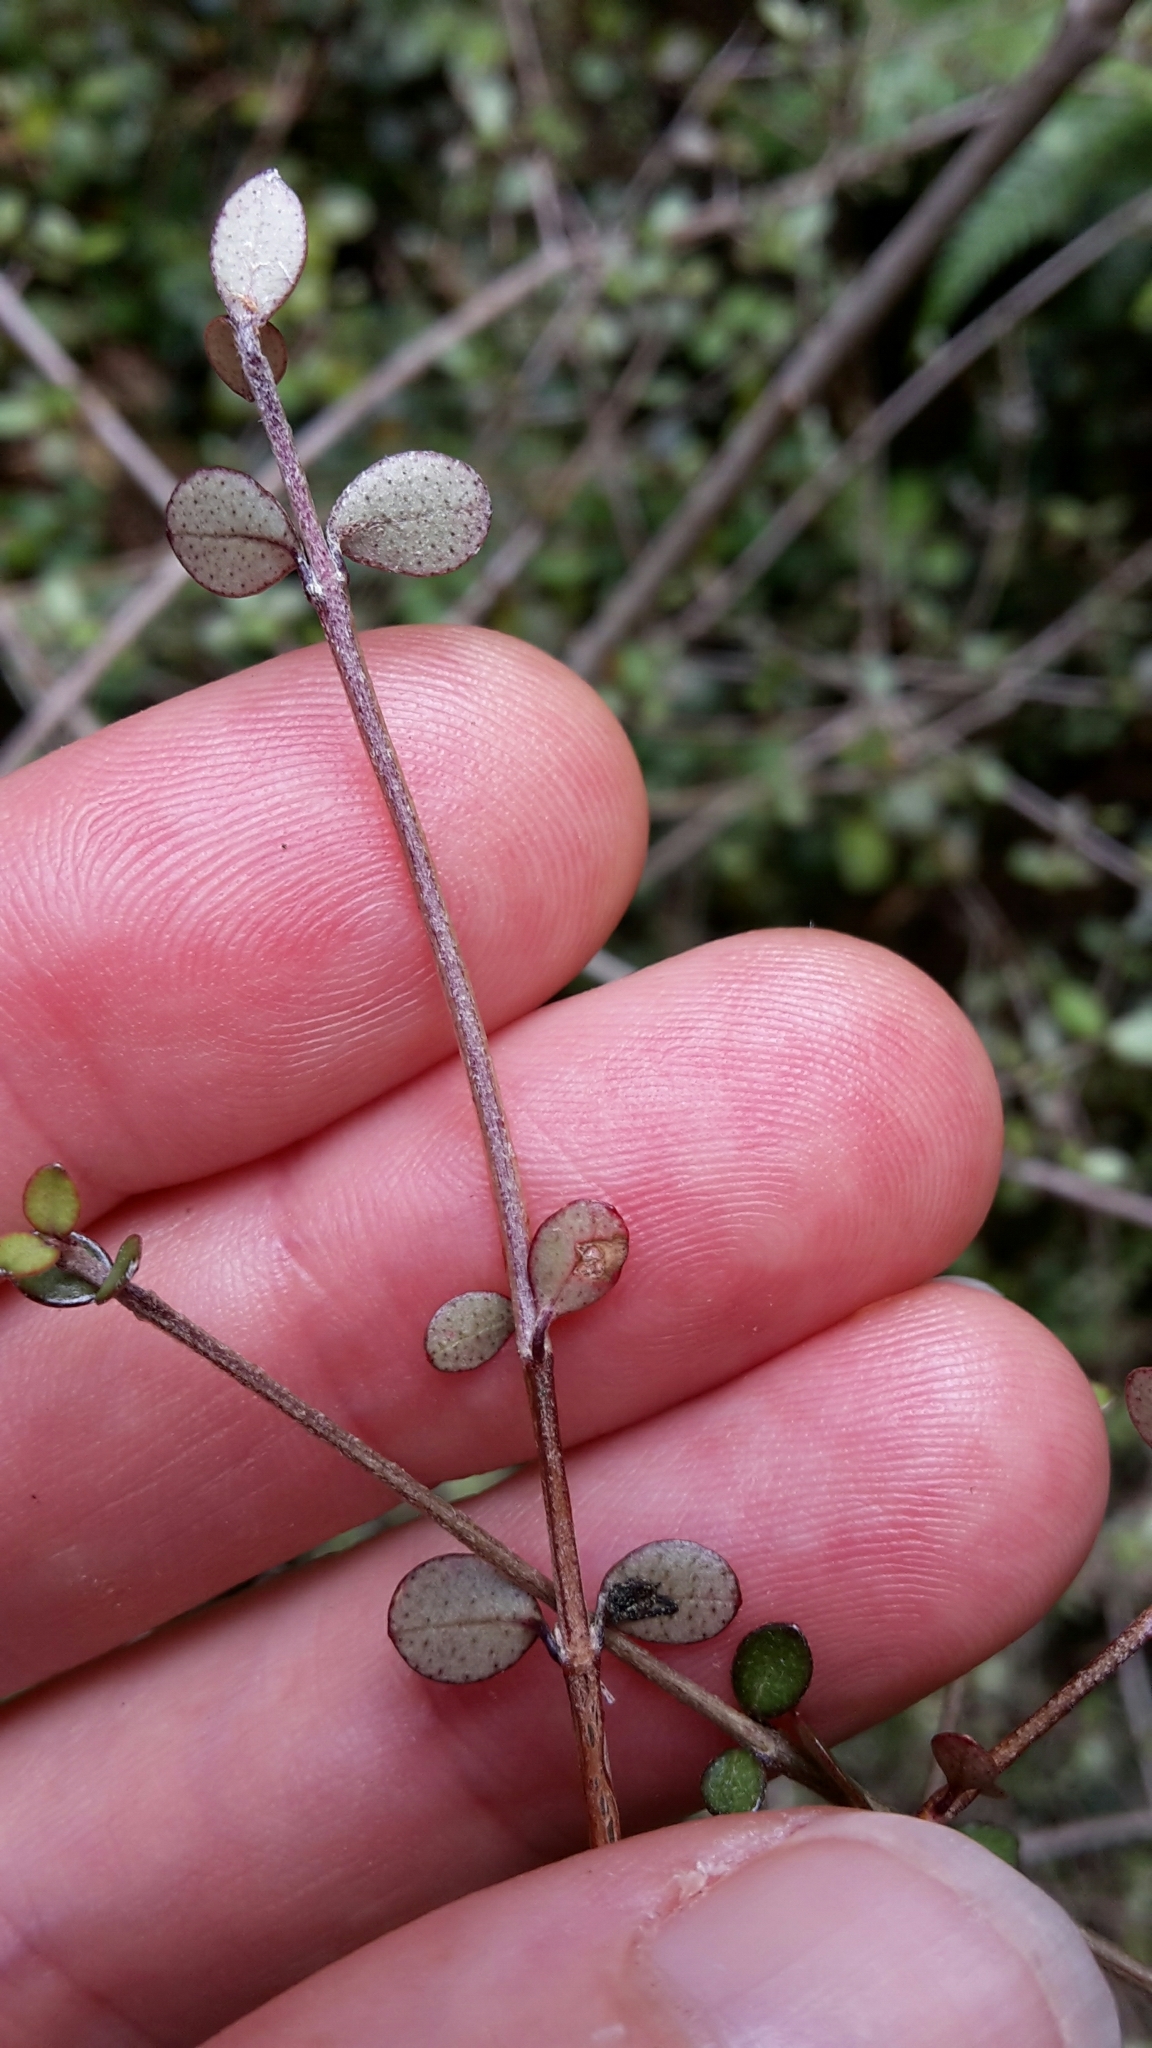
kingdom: Plantae
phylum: Tracheophyta
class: Magnoliopsida
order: Myrtales
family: Myrtaceae
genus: Neomyrtus
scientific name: Neomyrtus pedunculata
